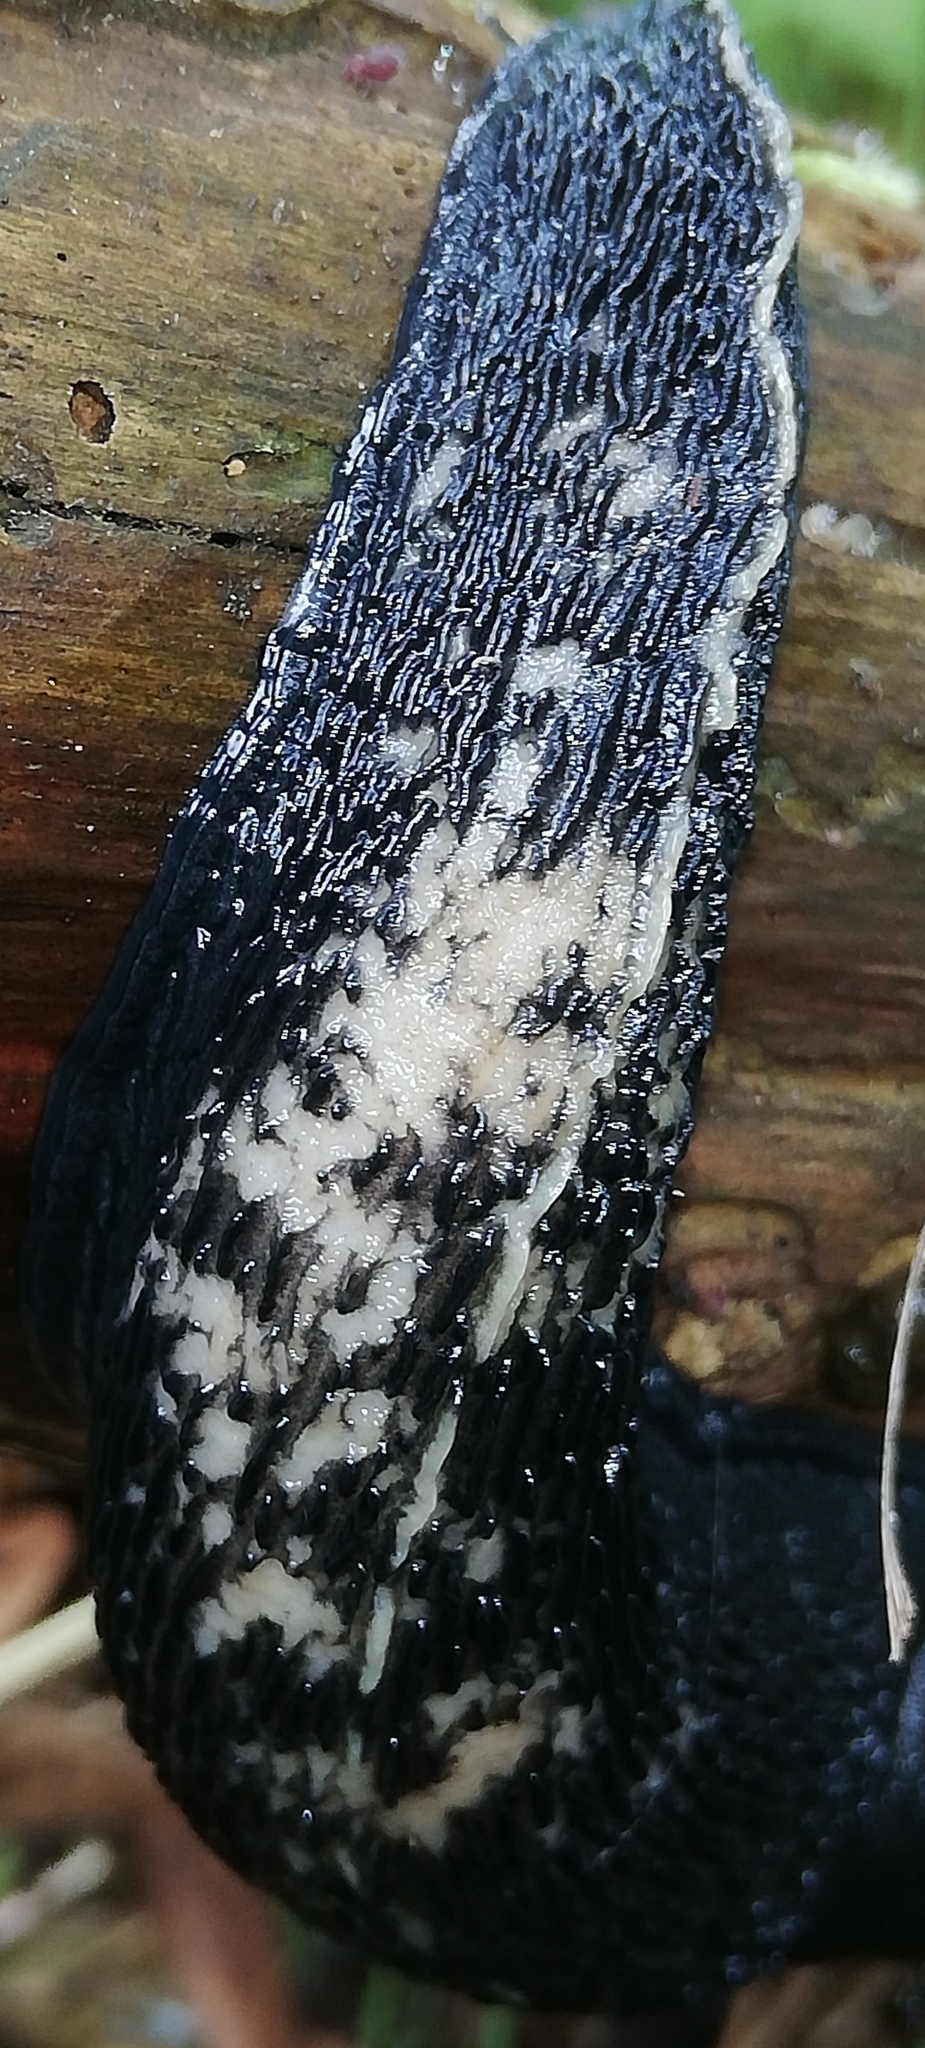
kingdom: Animalia
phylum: Mollusca
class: Gastropoda
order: Stylommatophora
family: Limacidae
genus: Limax
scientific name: Limax cinereoniger
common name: Ash-black slug
